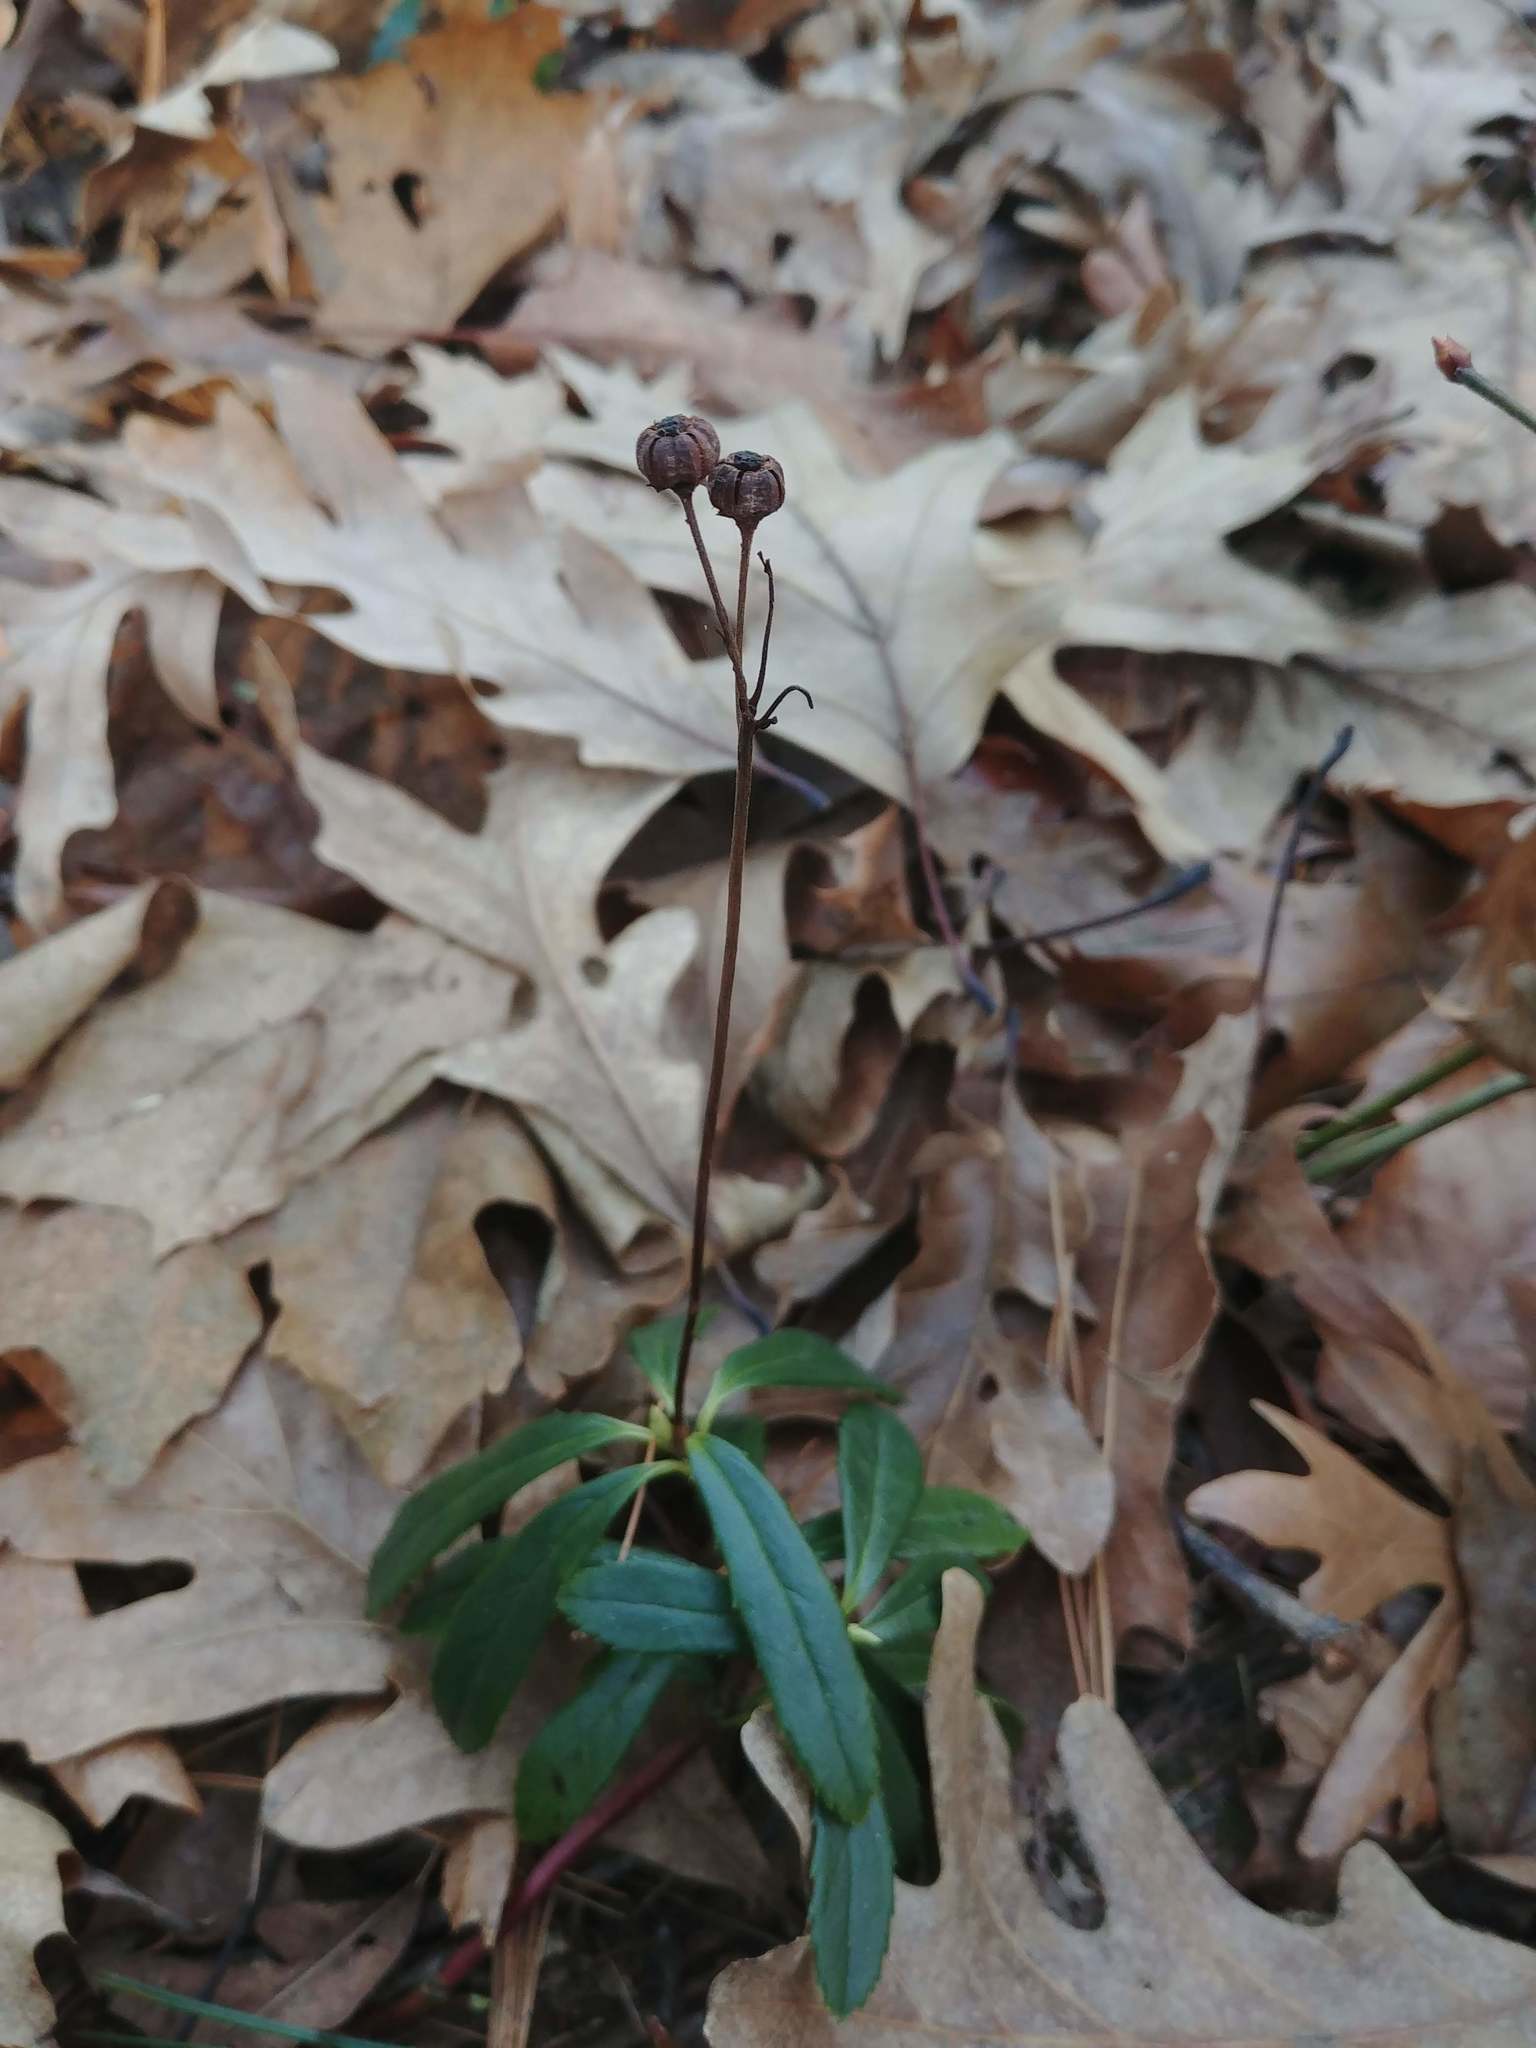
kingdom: Plantae
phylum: Tracheophyta
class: Magnoliopsida
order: Ericales
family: Ericaceae
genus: Chimaphila
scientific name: Chimaphila umbellata
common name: Pipsissewa
